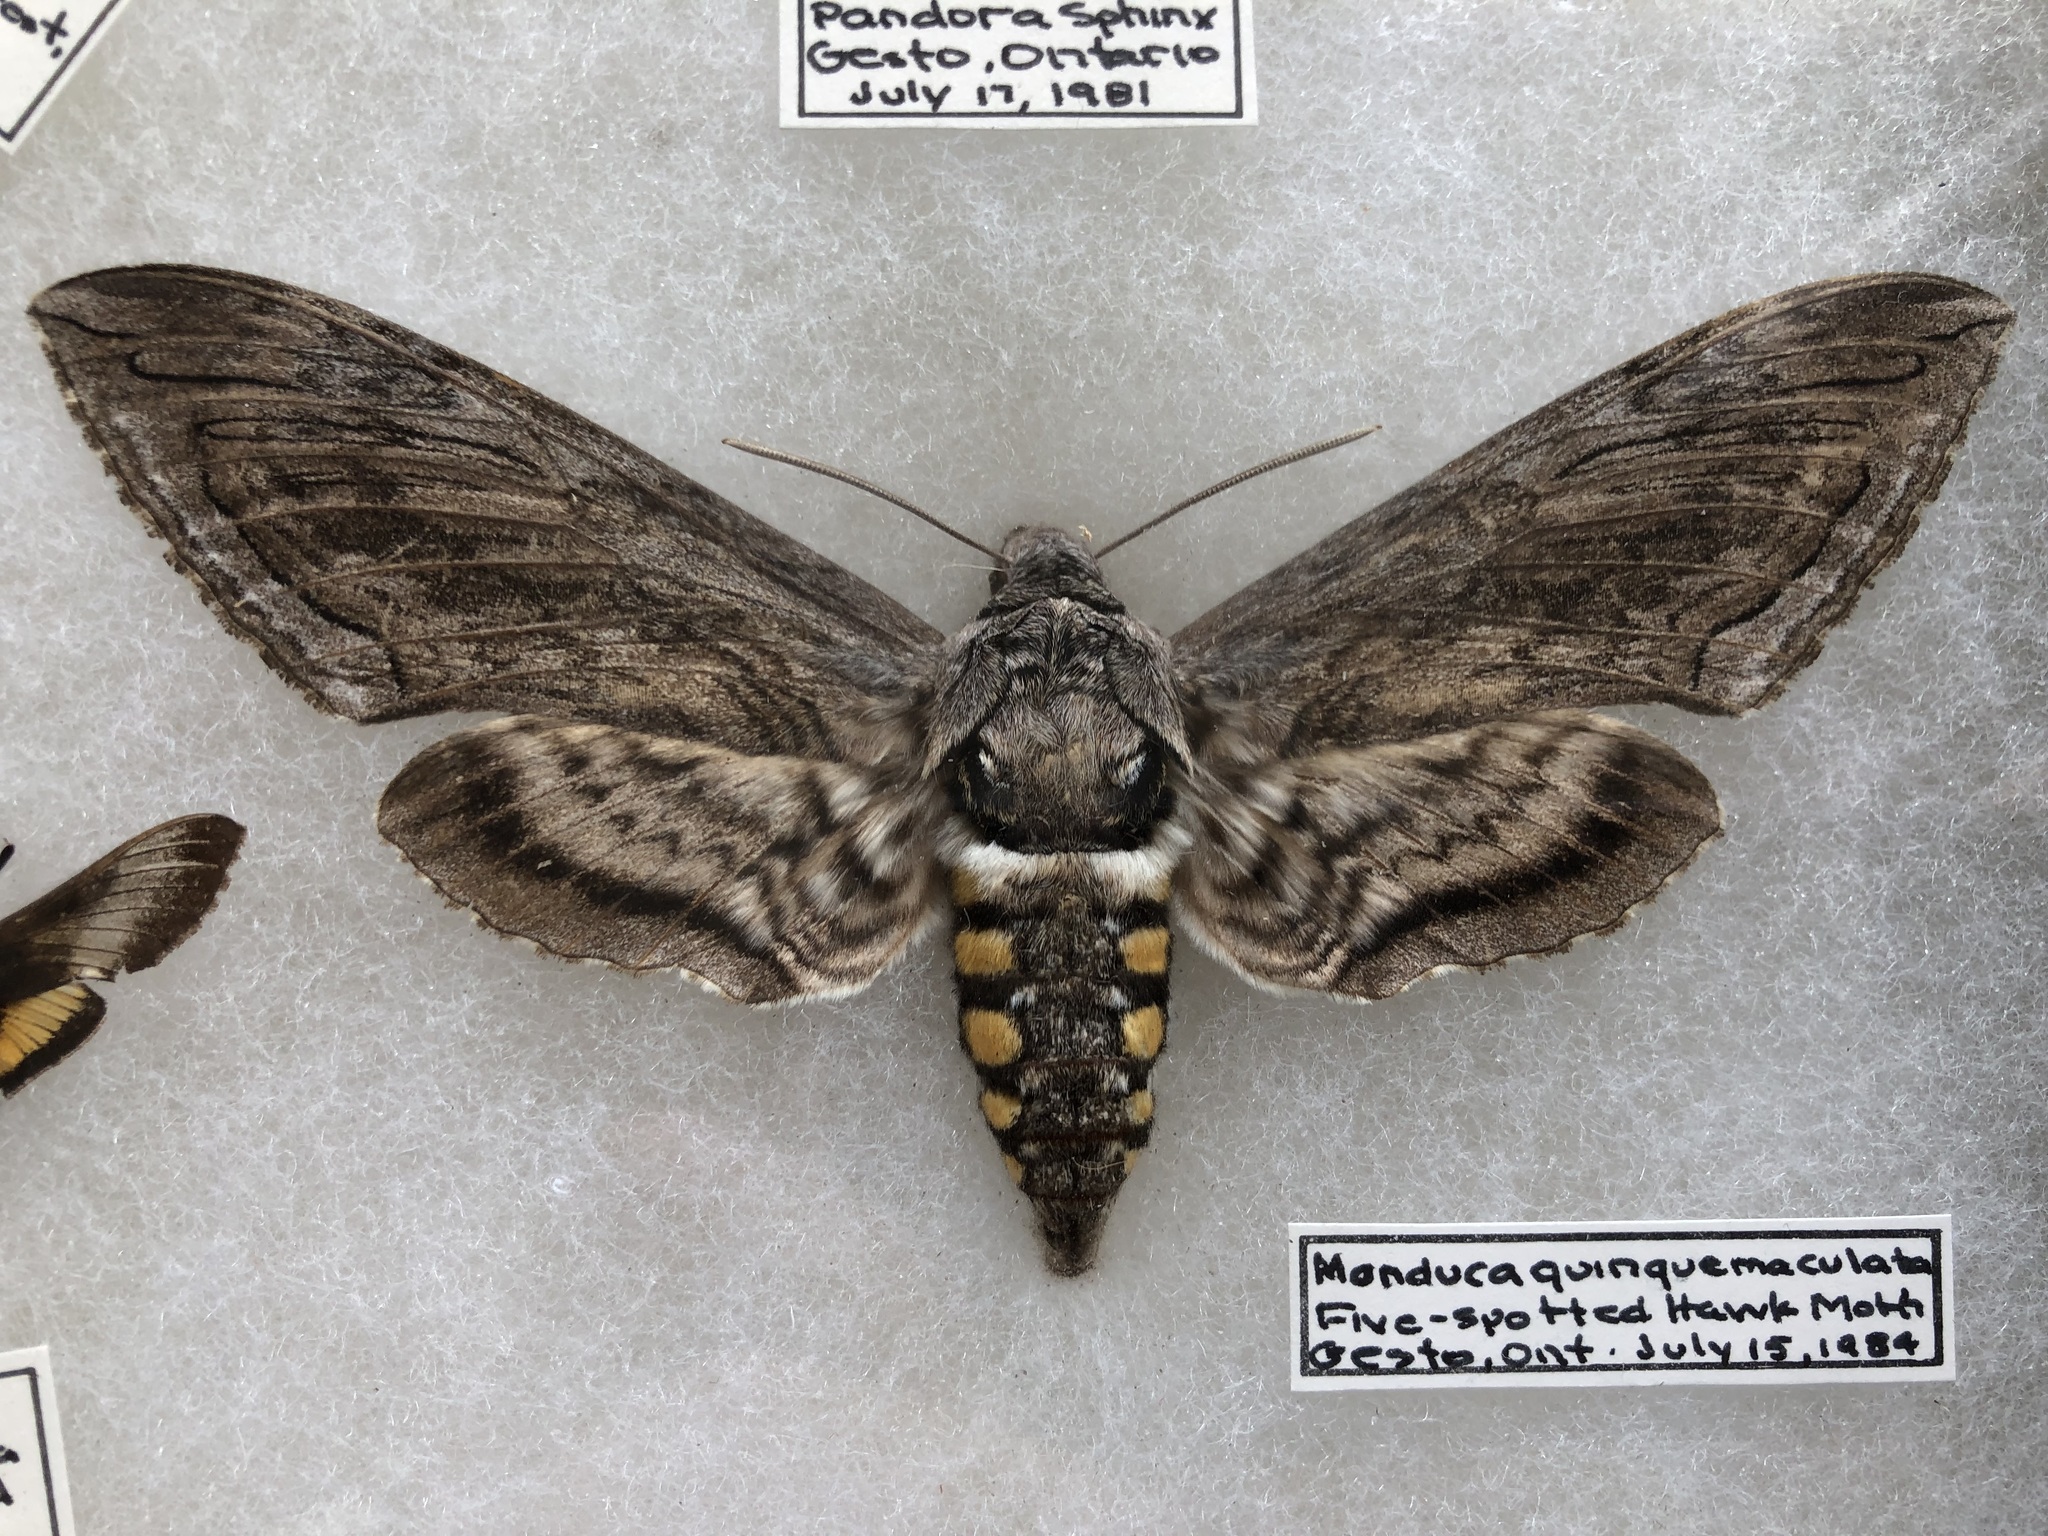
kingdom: Animalia
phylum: Arthropoda
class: Insecta
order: Lepidoptera
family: Sphingidae
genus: Manduca
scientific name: Manduca quinquemaculatus
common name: Five-spotted hawk-moth
